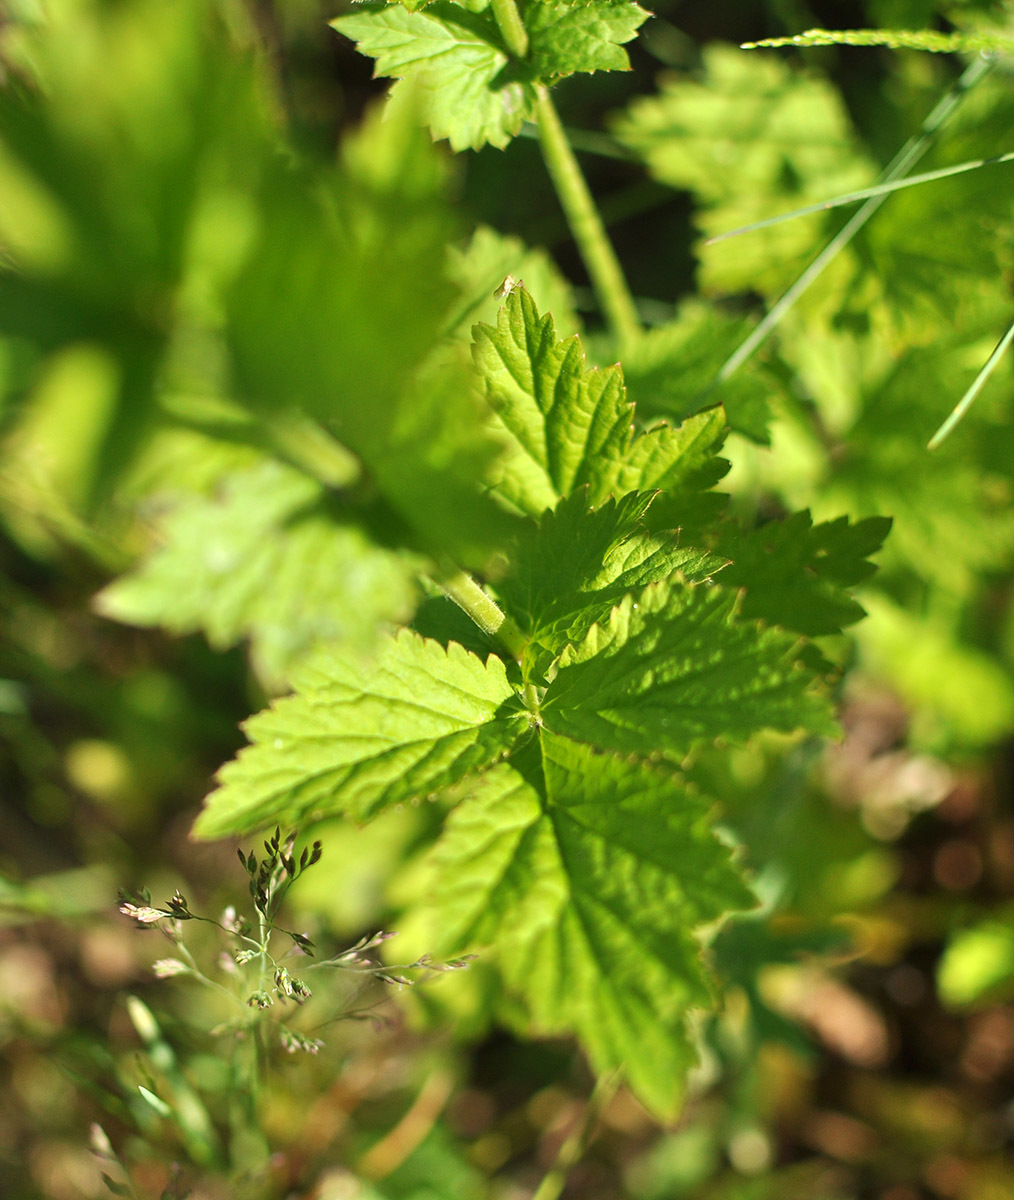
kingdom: Plantae
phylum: Tracheophyta
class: Magnoliopsida
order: Rosales
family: Rosaceae
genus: Geum
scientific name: Geum urbanum
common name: Wood avens
